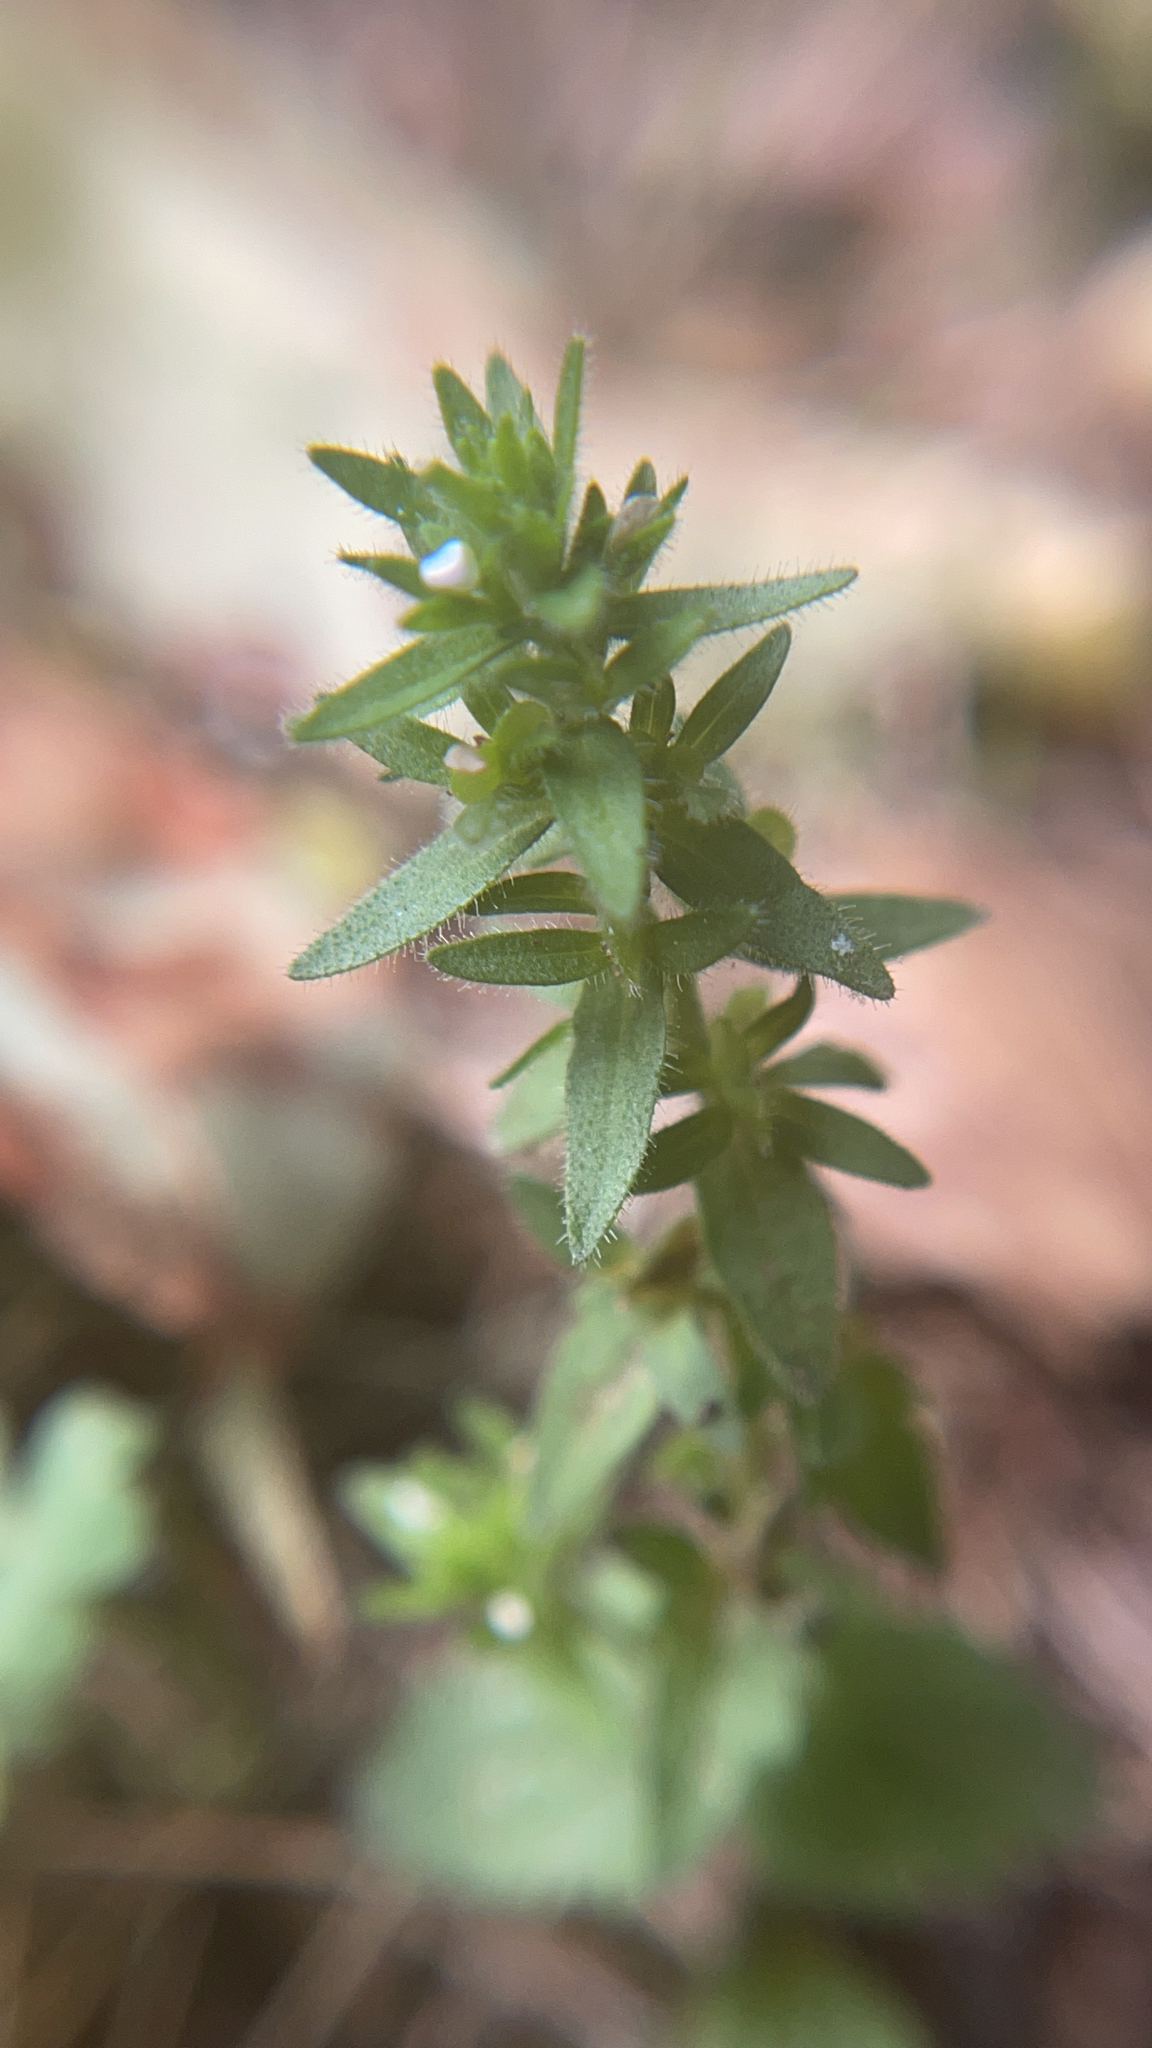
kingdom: Plantae
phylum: Tracheophyta
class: Magnoliopsida
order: Lamiales
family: Plantaginaceae
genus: Veronica
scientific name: Veronica arvensis
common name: Corn speedwell
